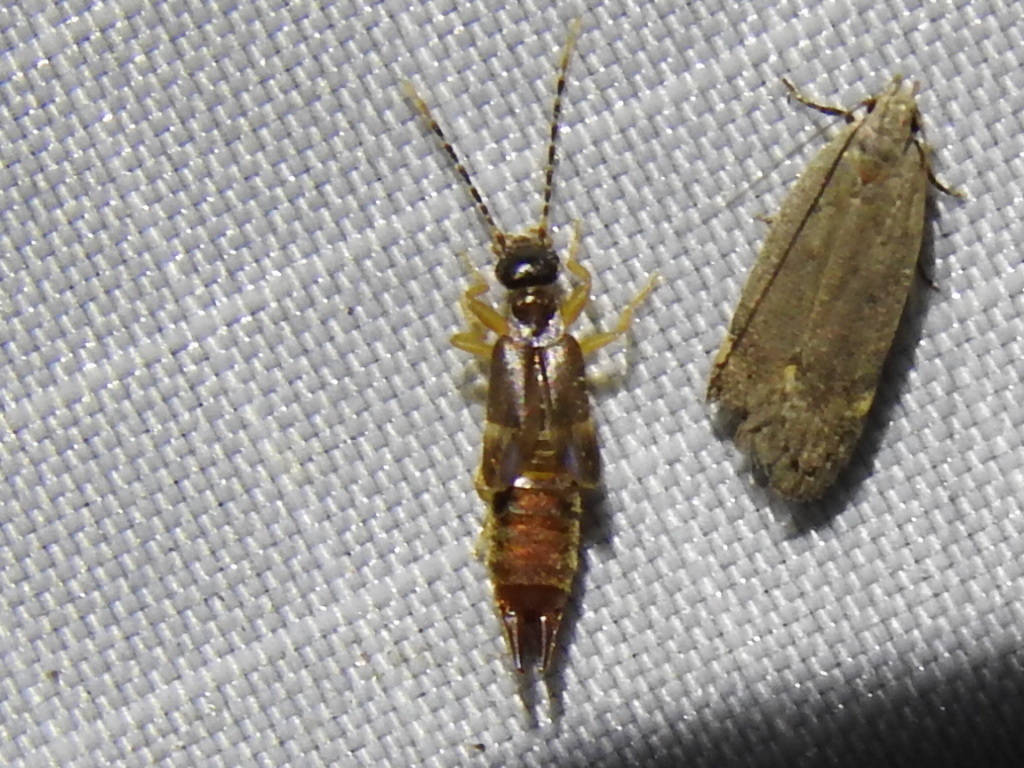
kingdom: Animalia
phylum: Arthropoda
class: Insecta
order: Dermaptera
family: Spongiphoridae
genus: Labia
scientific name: Labia minor
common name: Lesser earwig
